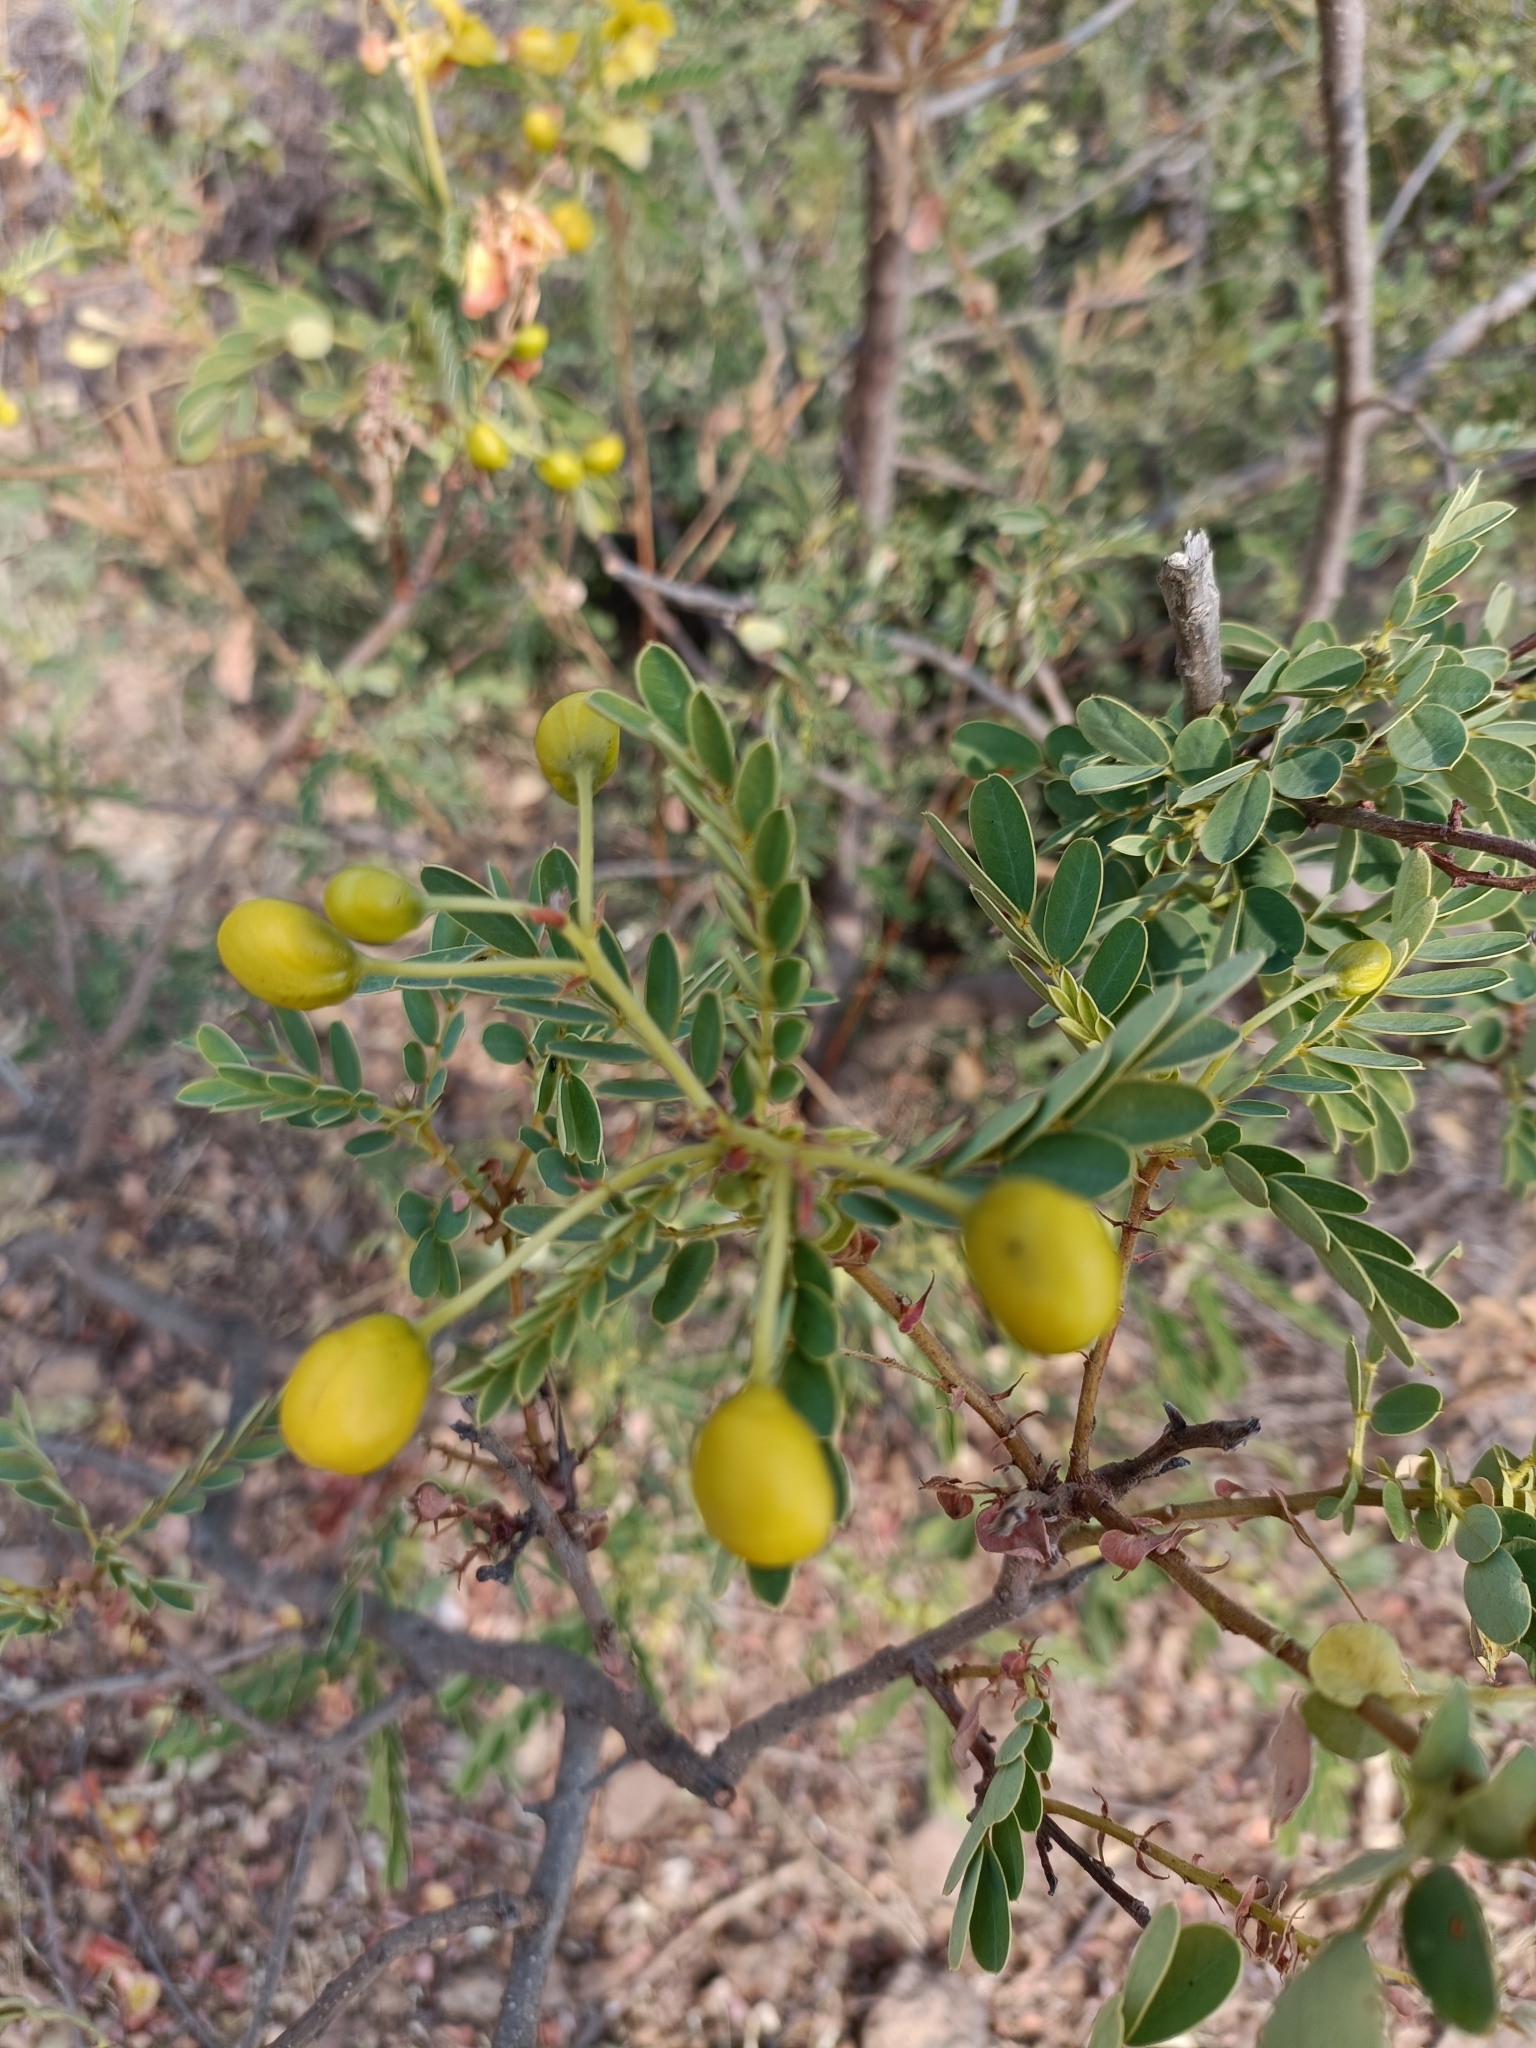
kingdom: Plantae
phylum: Tracheophyta
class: Magnoliopsida
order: Fabales
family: Fabaceae
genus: Senna
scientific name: Senna auriculata
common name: Tanner's cassia
